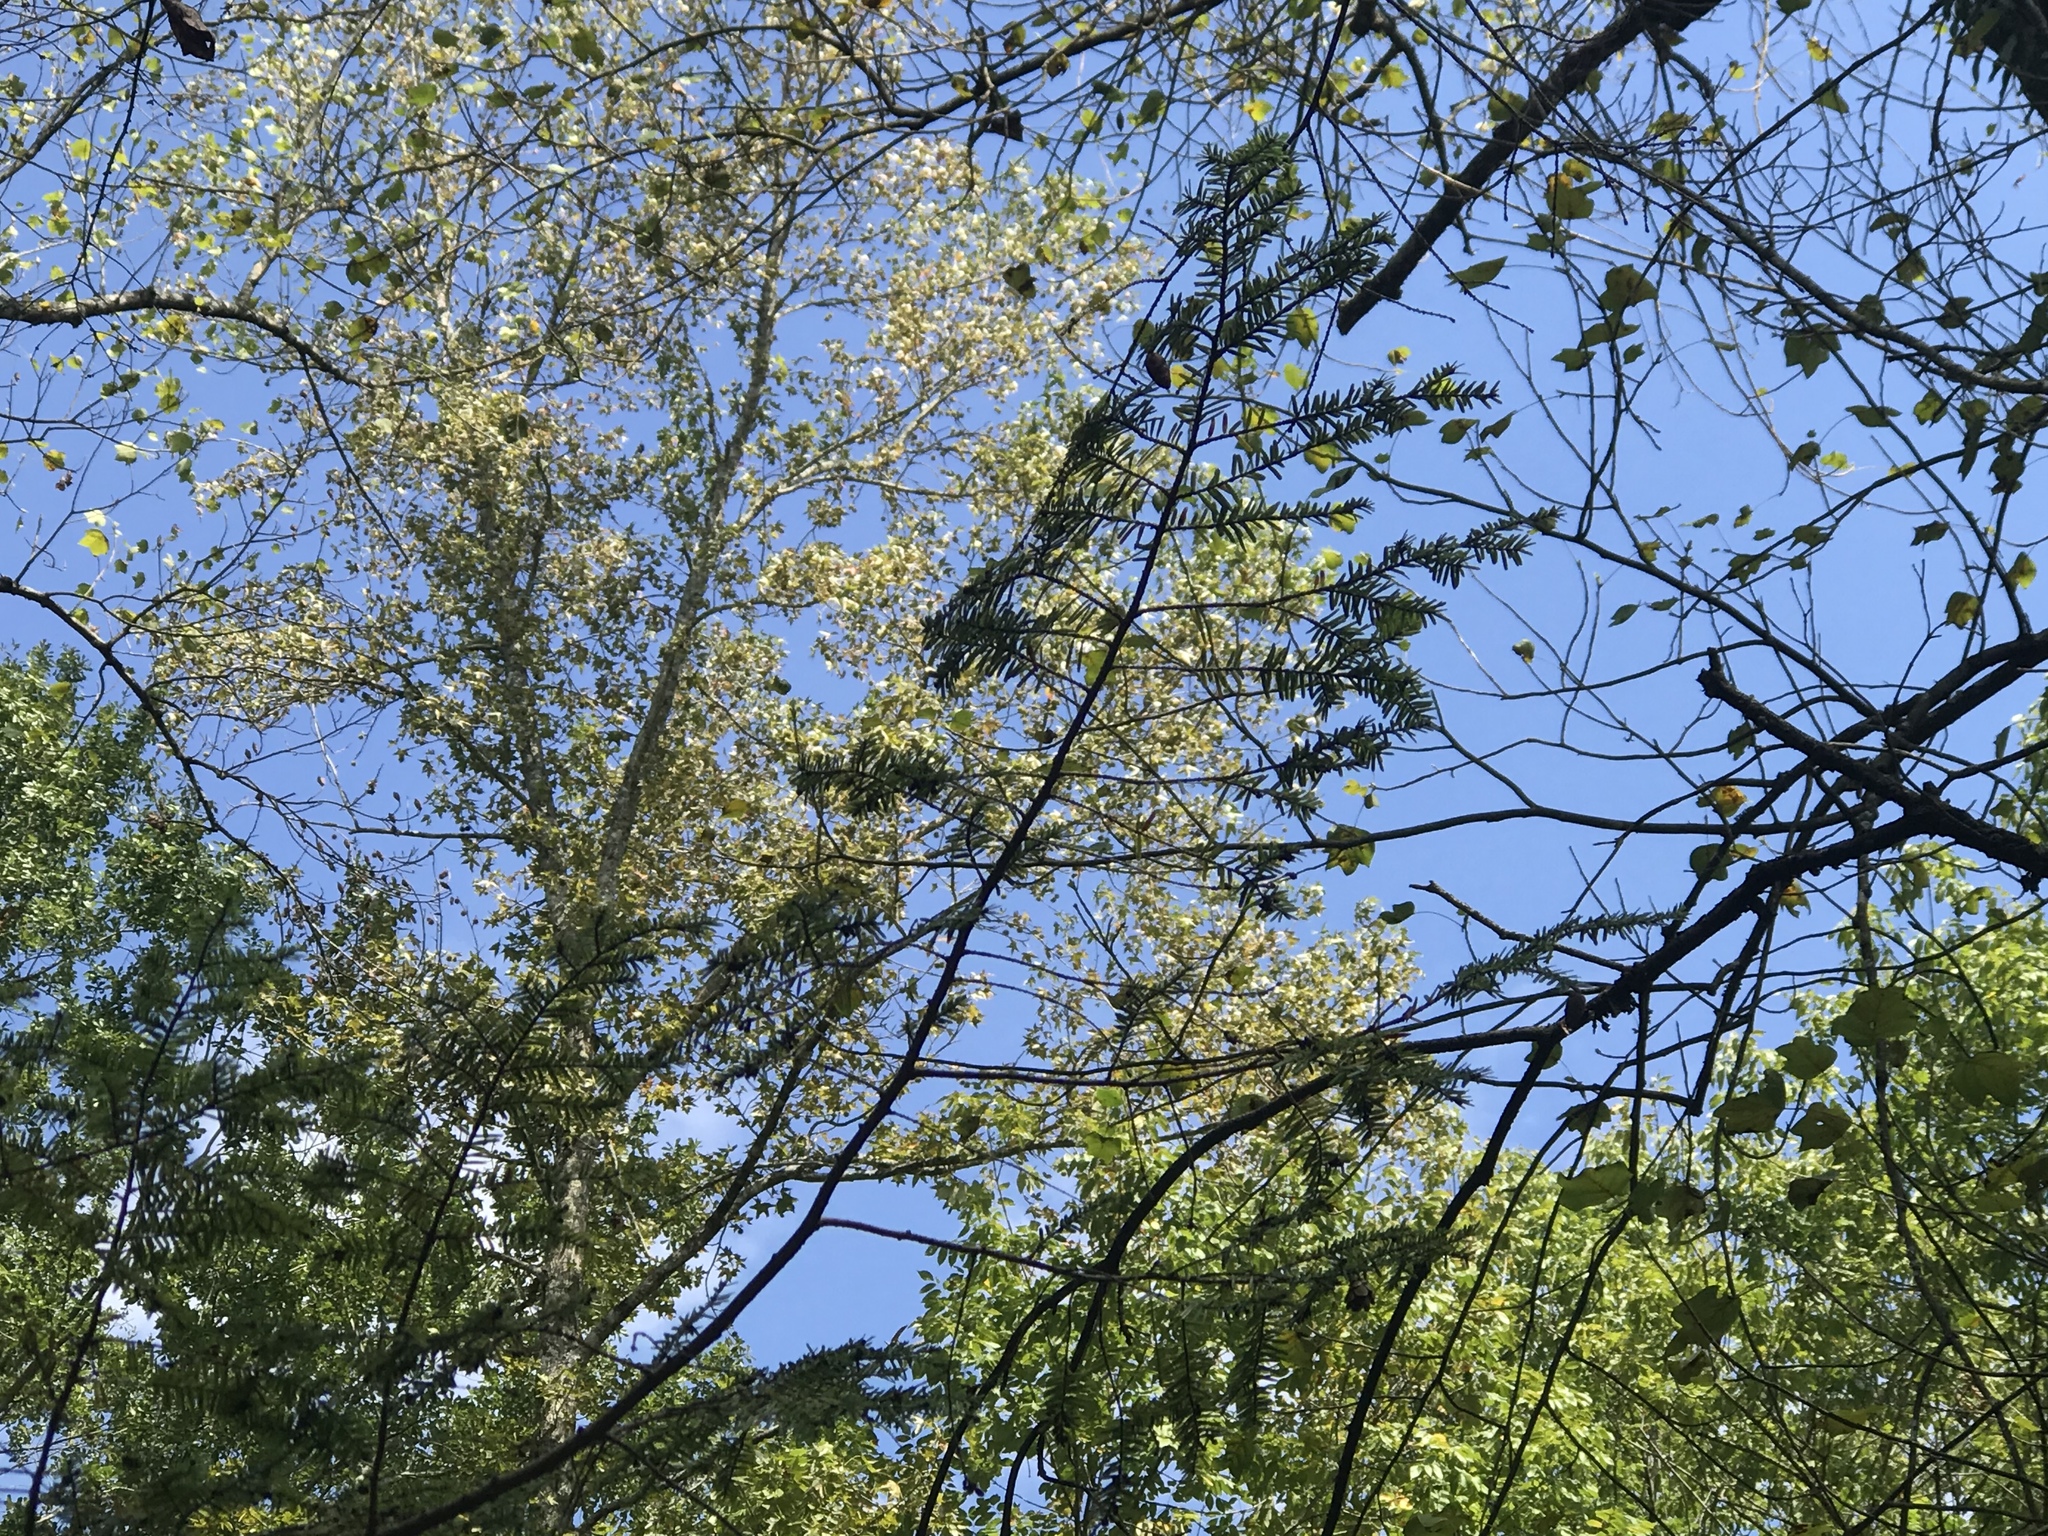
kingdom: Plantae
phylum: Tracheophyta
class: Pinopsida
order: Pinales
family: Pinaceae
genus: Tsuga
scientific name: Tsuga canadensis
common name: Eastern hemlock
